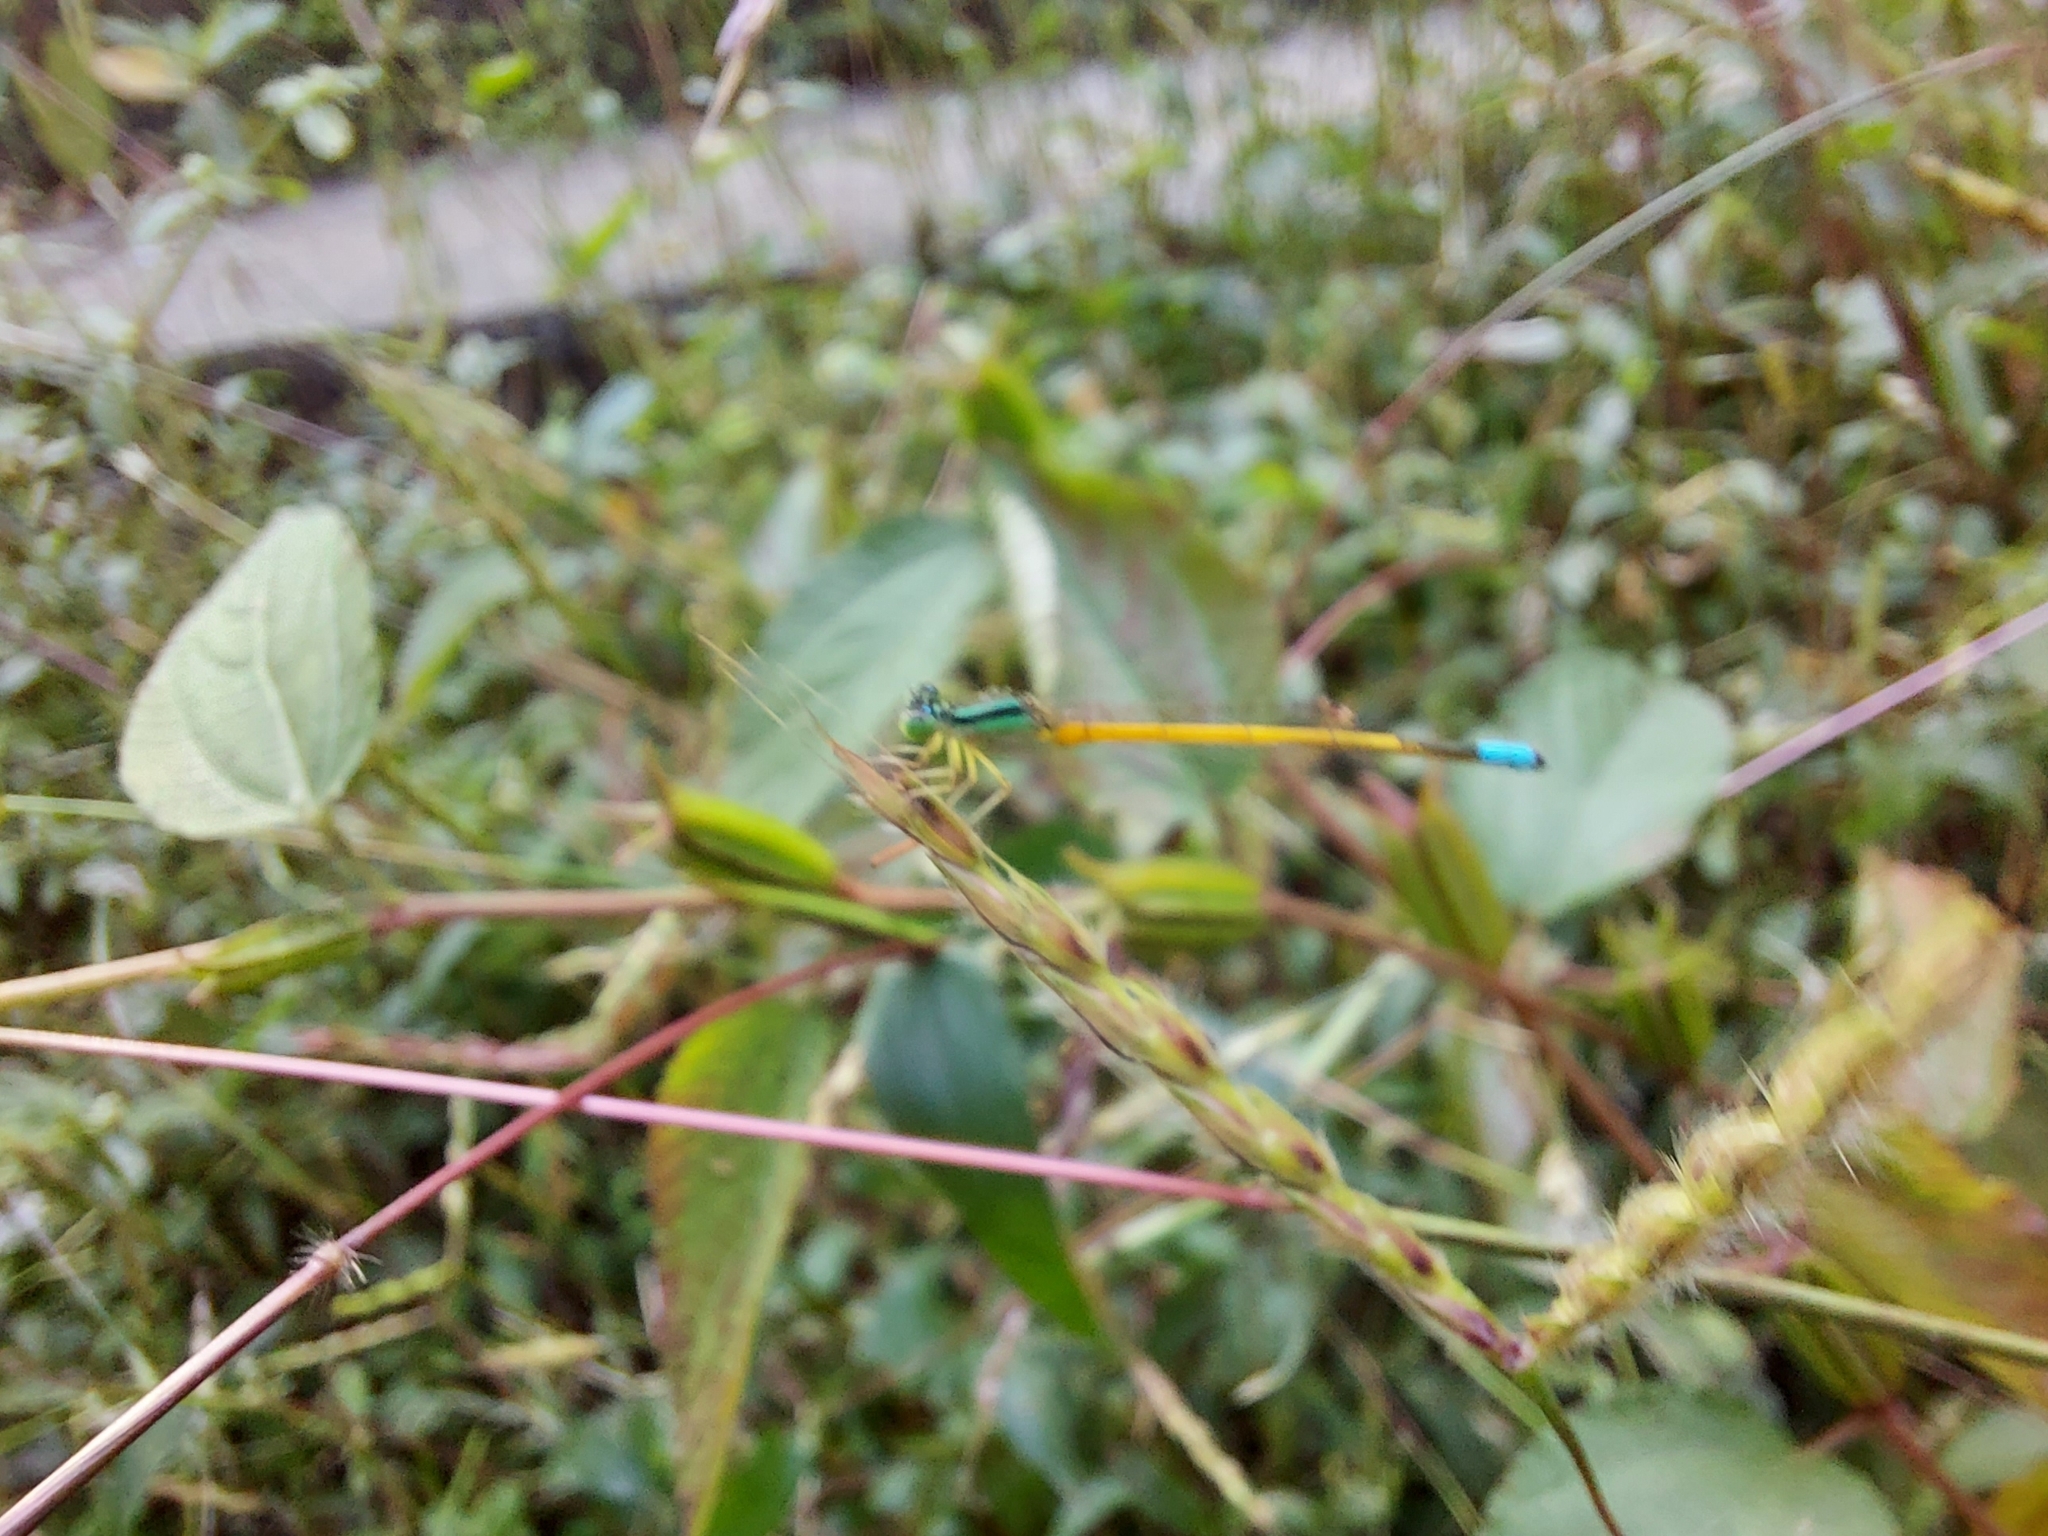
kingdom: Animalia
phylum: Arthropoda
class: Insecta
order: Odonata
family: Coenagrionidae
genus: Ischnura
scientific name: Ischnura rubilio
